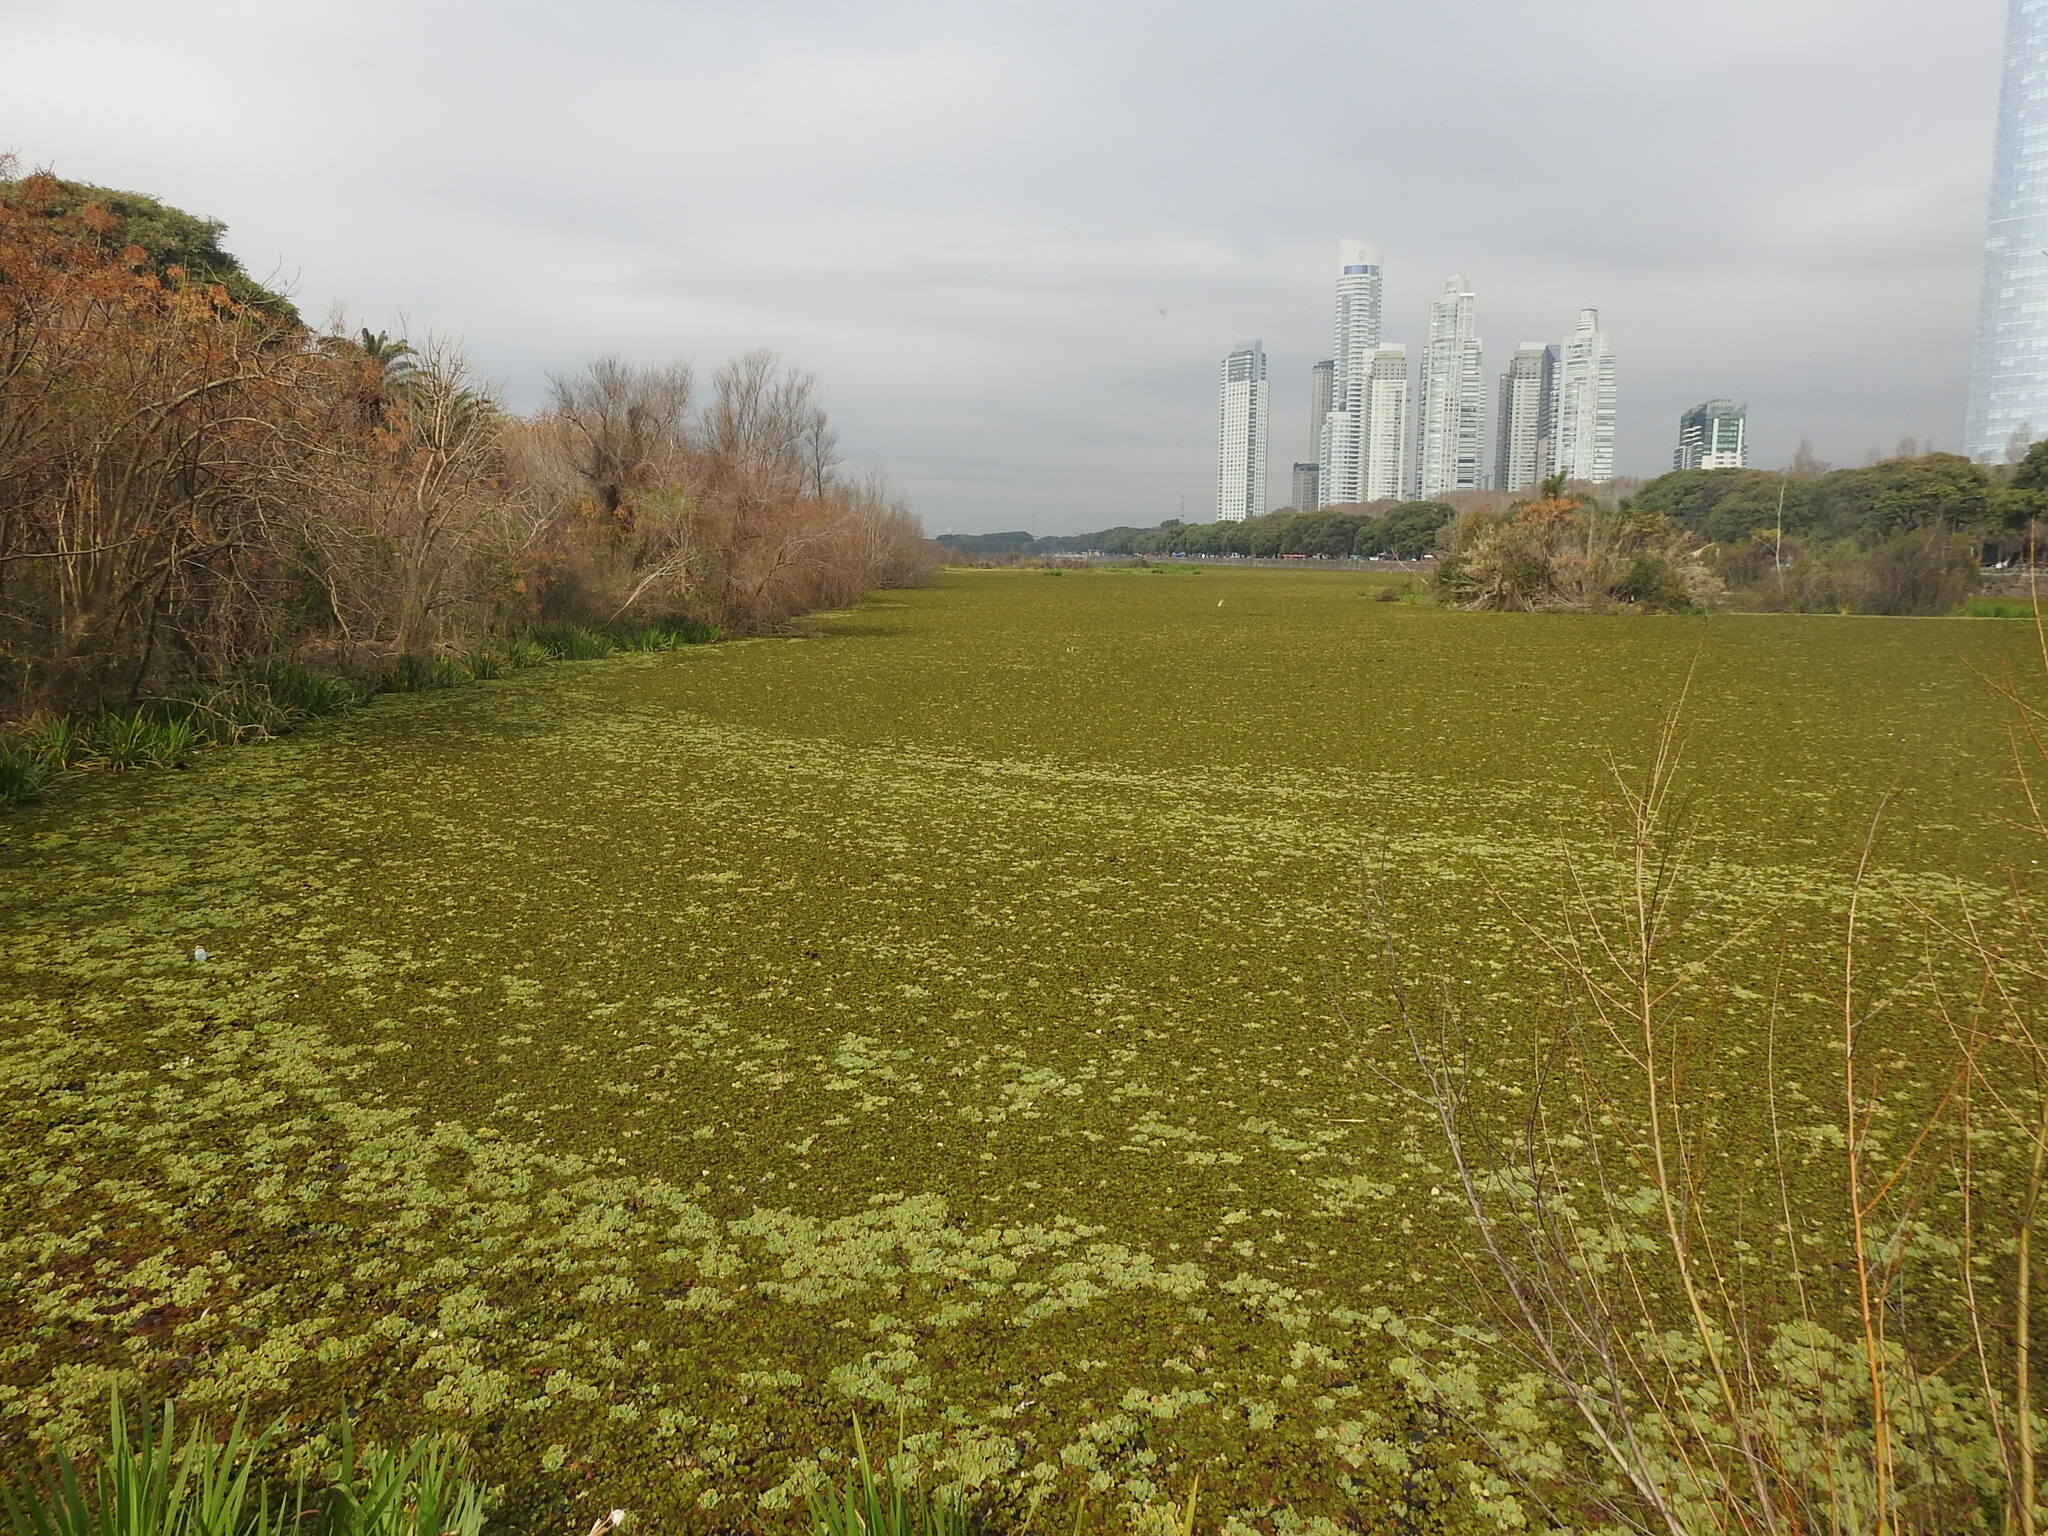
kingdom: Plantae
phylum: Tracheophyta
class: Liliopsida
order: Alismatales
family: Araceae
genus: Pistia
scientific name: Pistia stratiotes
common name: Water lettuce
